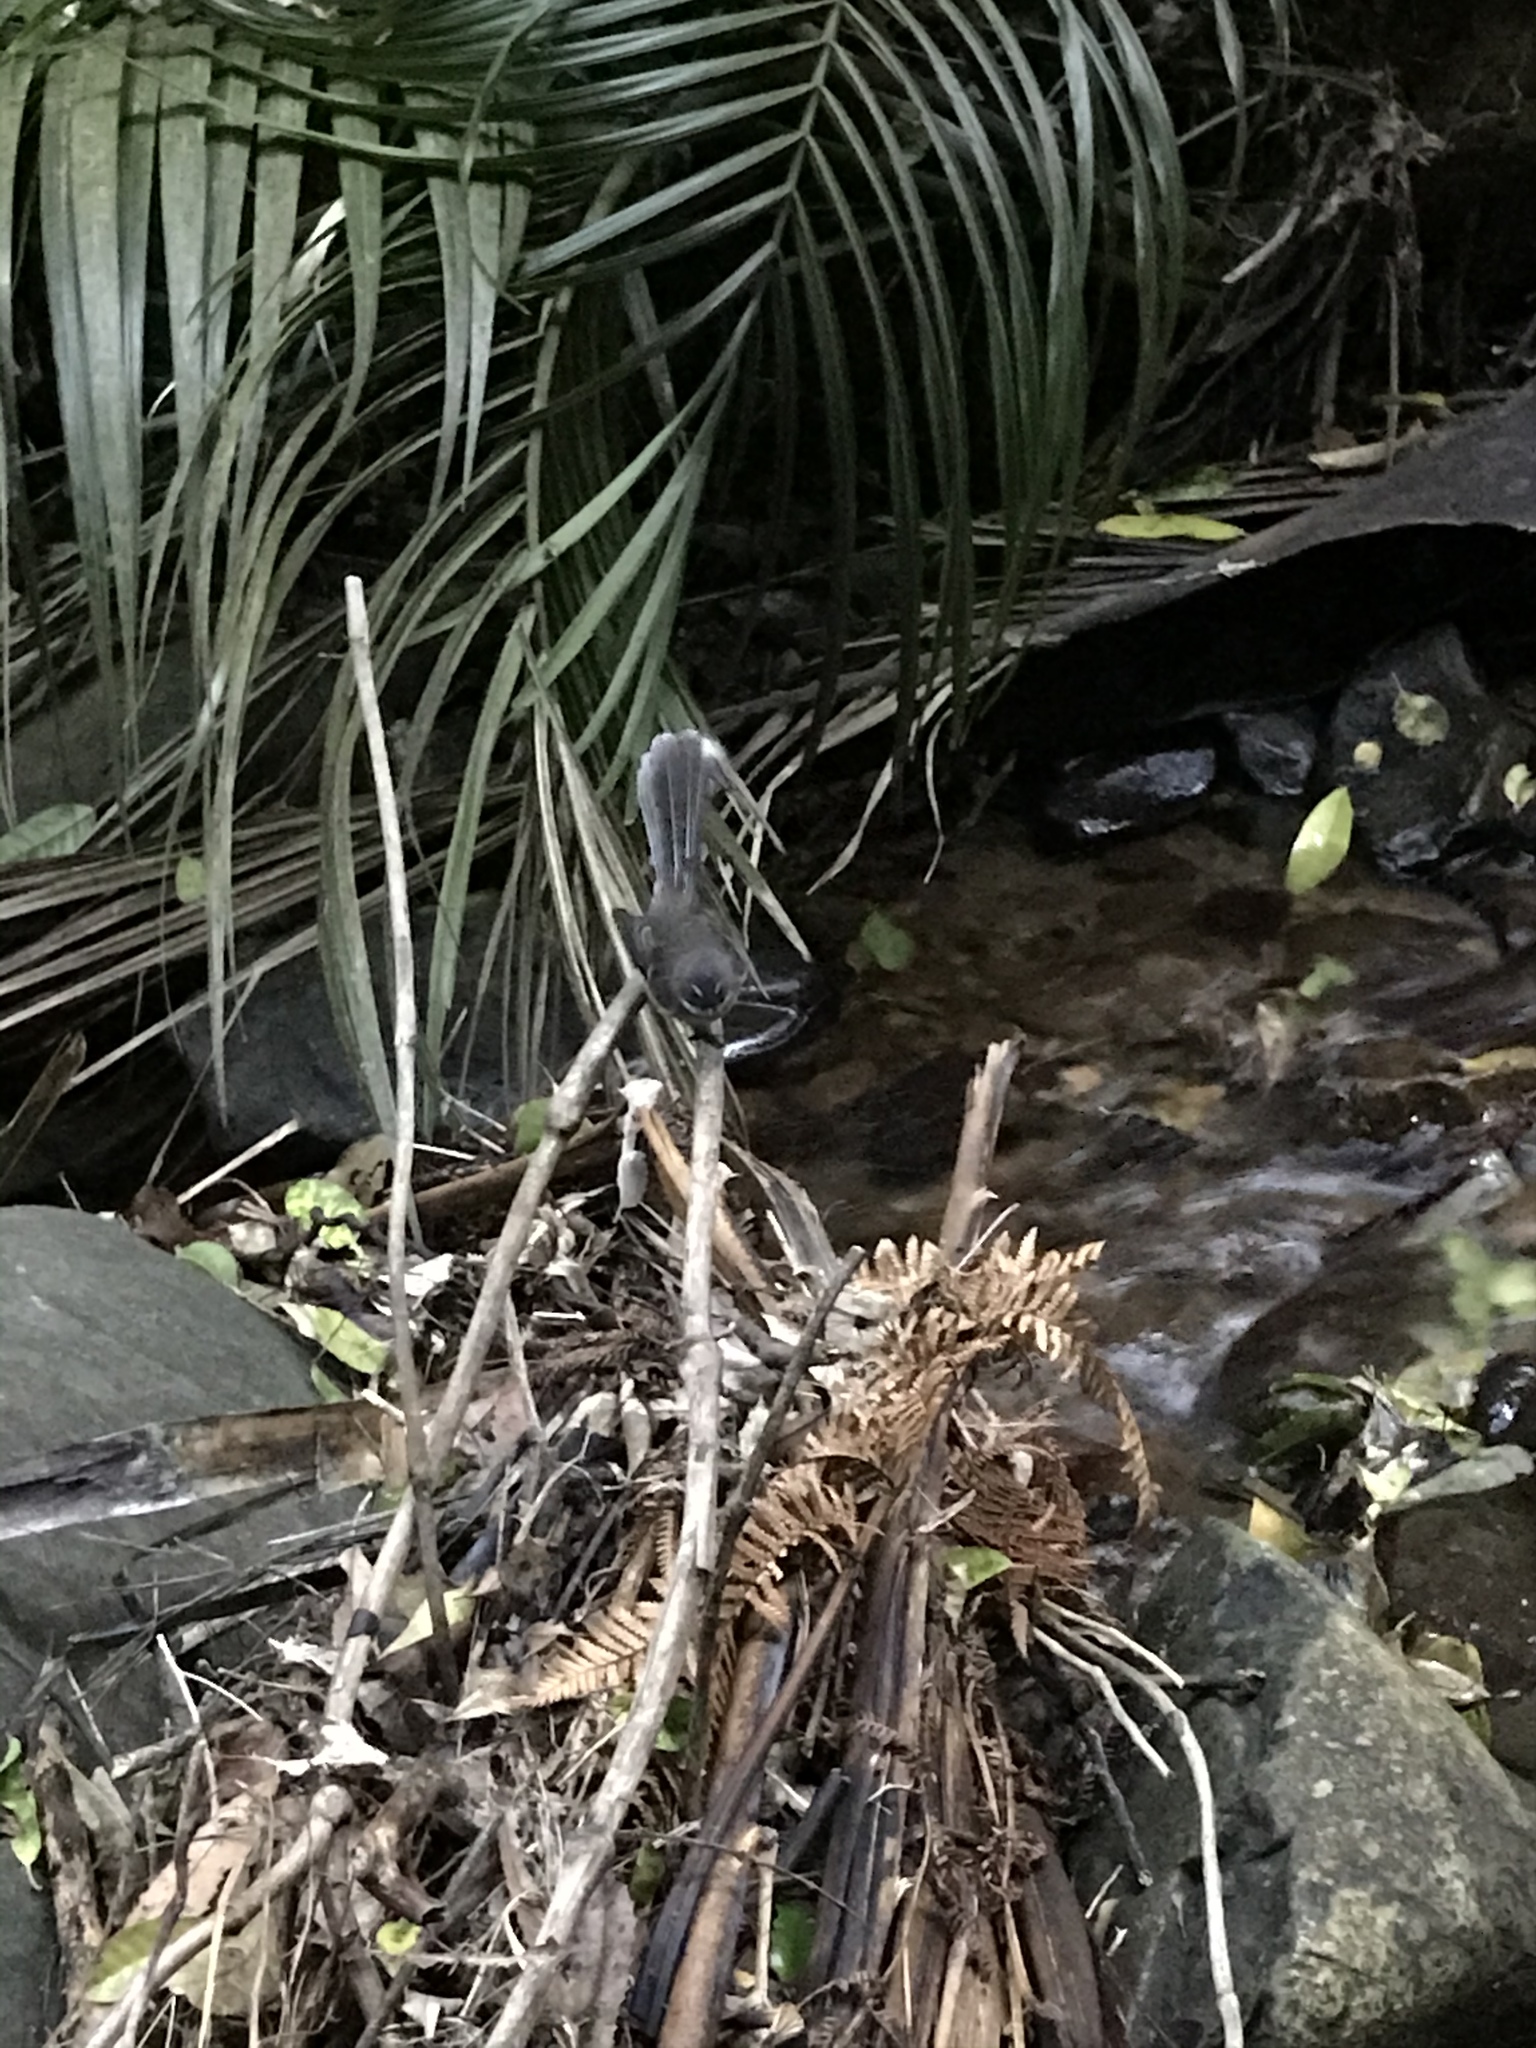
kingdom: Animalia
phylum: Chordata
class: Aves
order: Passeriformes
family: Rhipiduridae
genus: Rhipidura
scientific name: Rhipidura fuliginosa
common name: New zealand fantail
